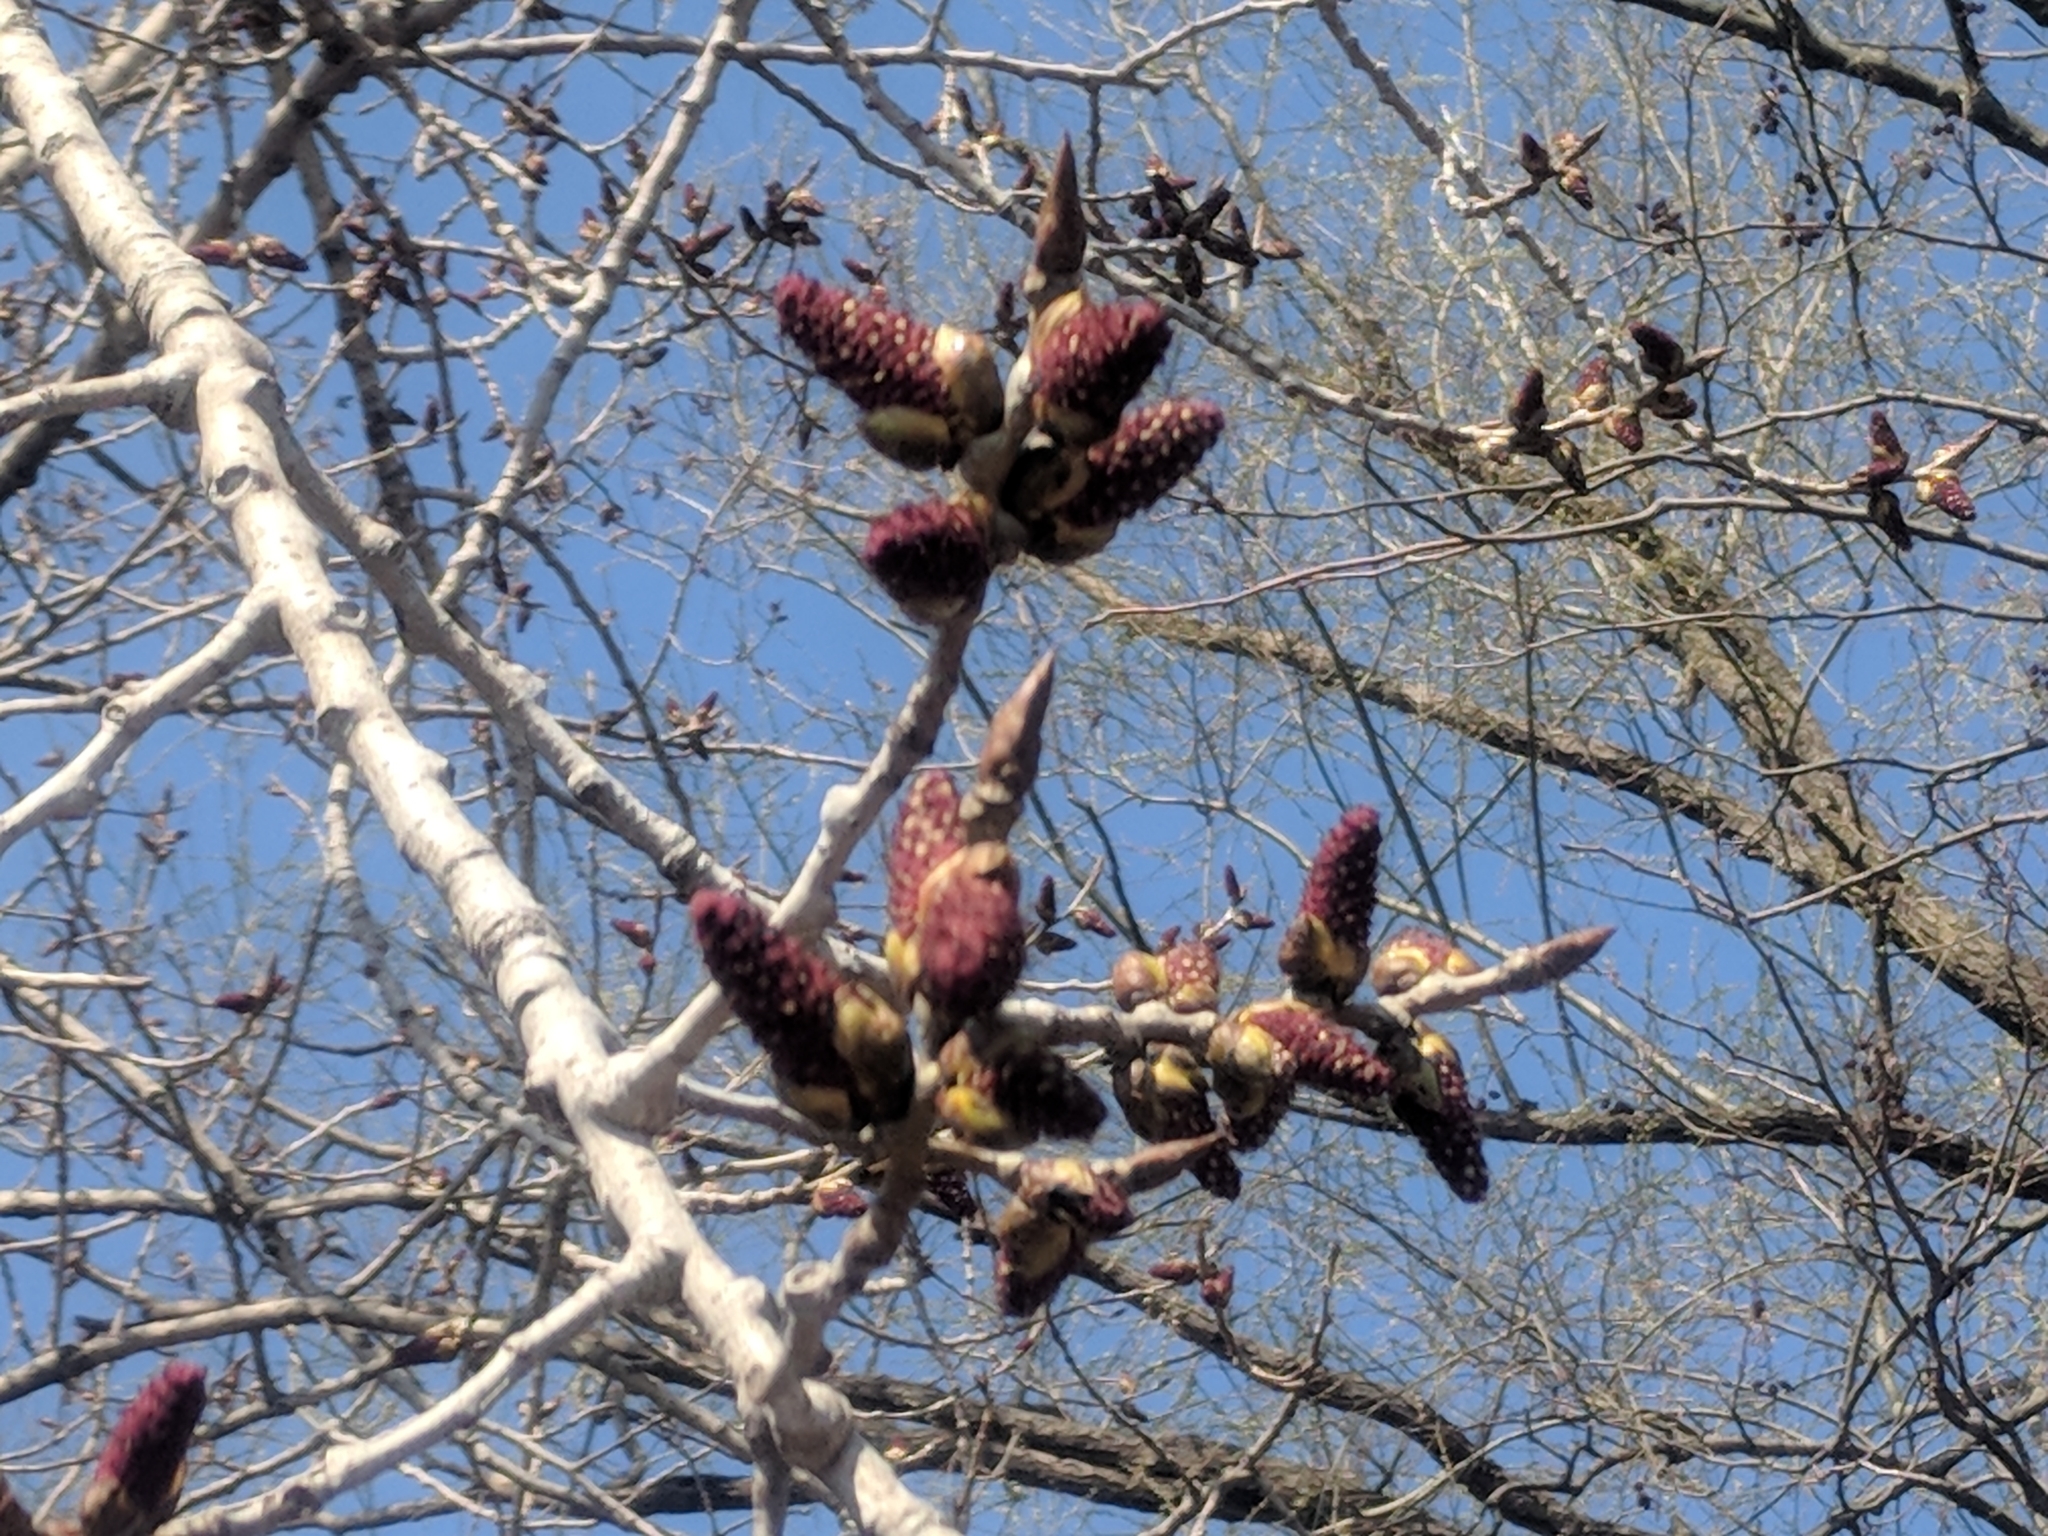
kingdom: Plantae
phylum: Tracheophyta
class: Magnoliopsida
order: Malpighiales
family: Salicaceae
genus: Populus
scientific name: Populus deltoides
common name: Eastern cottonwood
